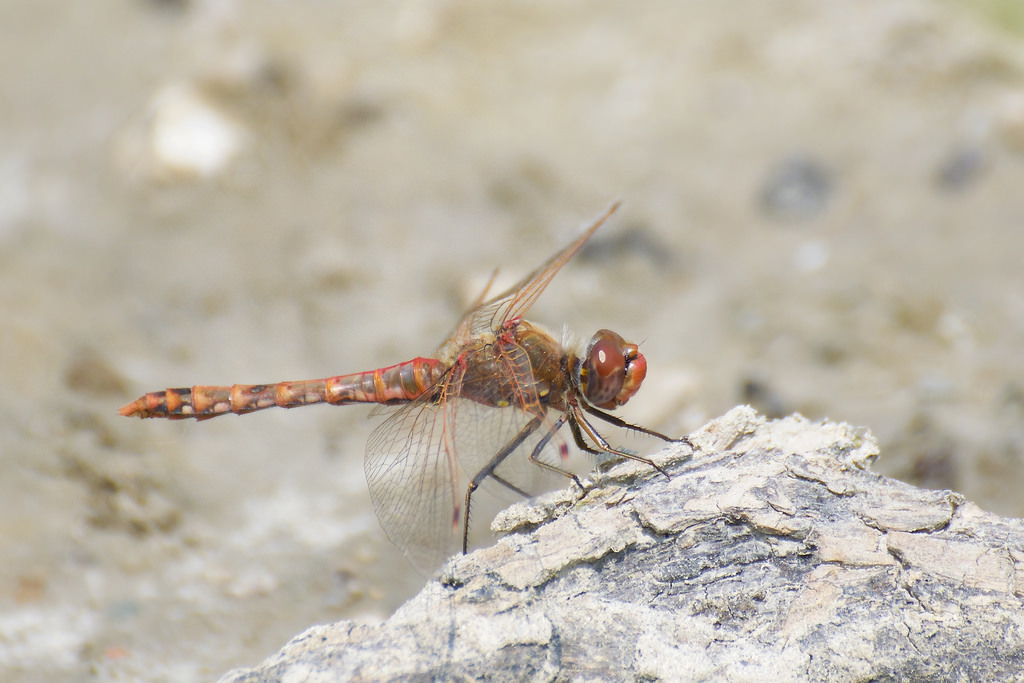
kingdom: Animalia
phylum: Arthropoda
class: Insecta
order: Odonata
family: Libellulidae
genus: Sympetrum
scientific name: Sympetrum corruptum
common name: Variegated meadowhawk
